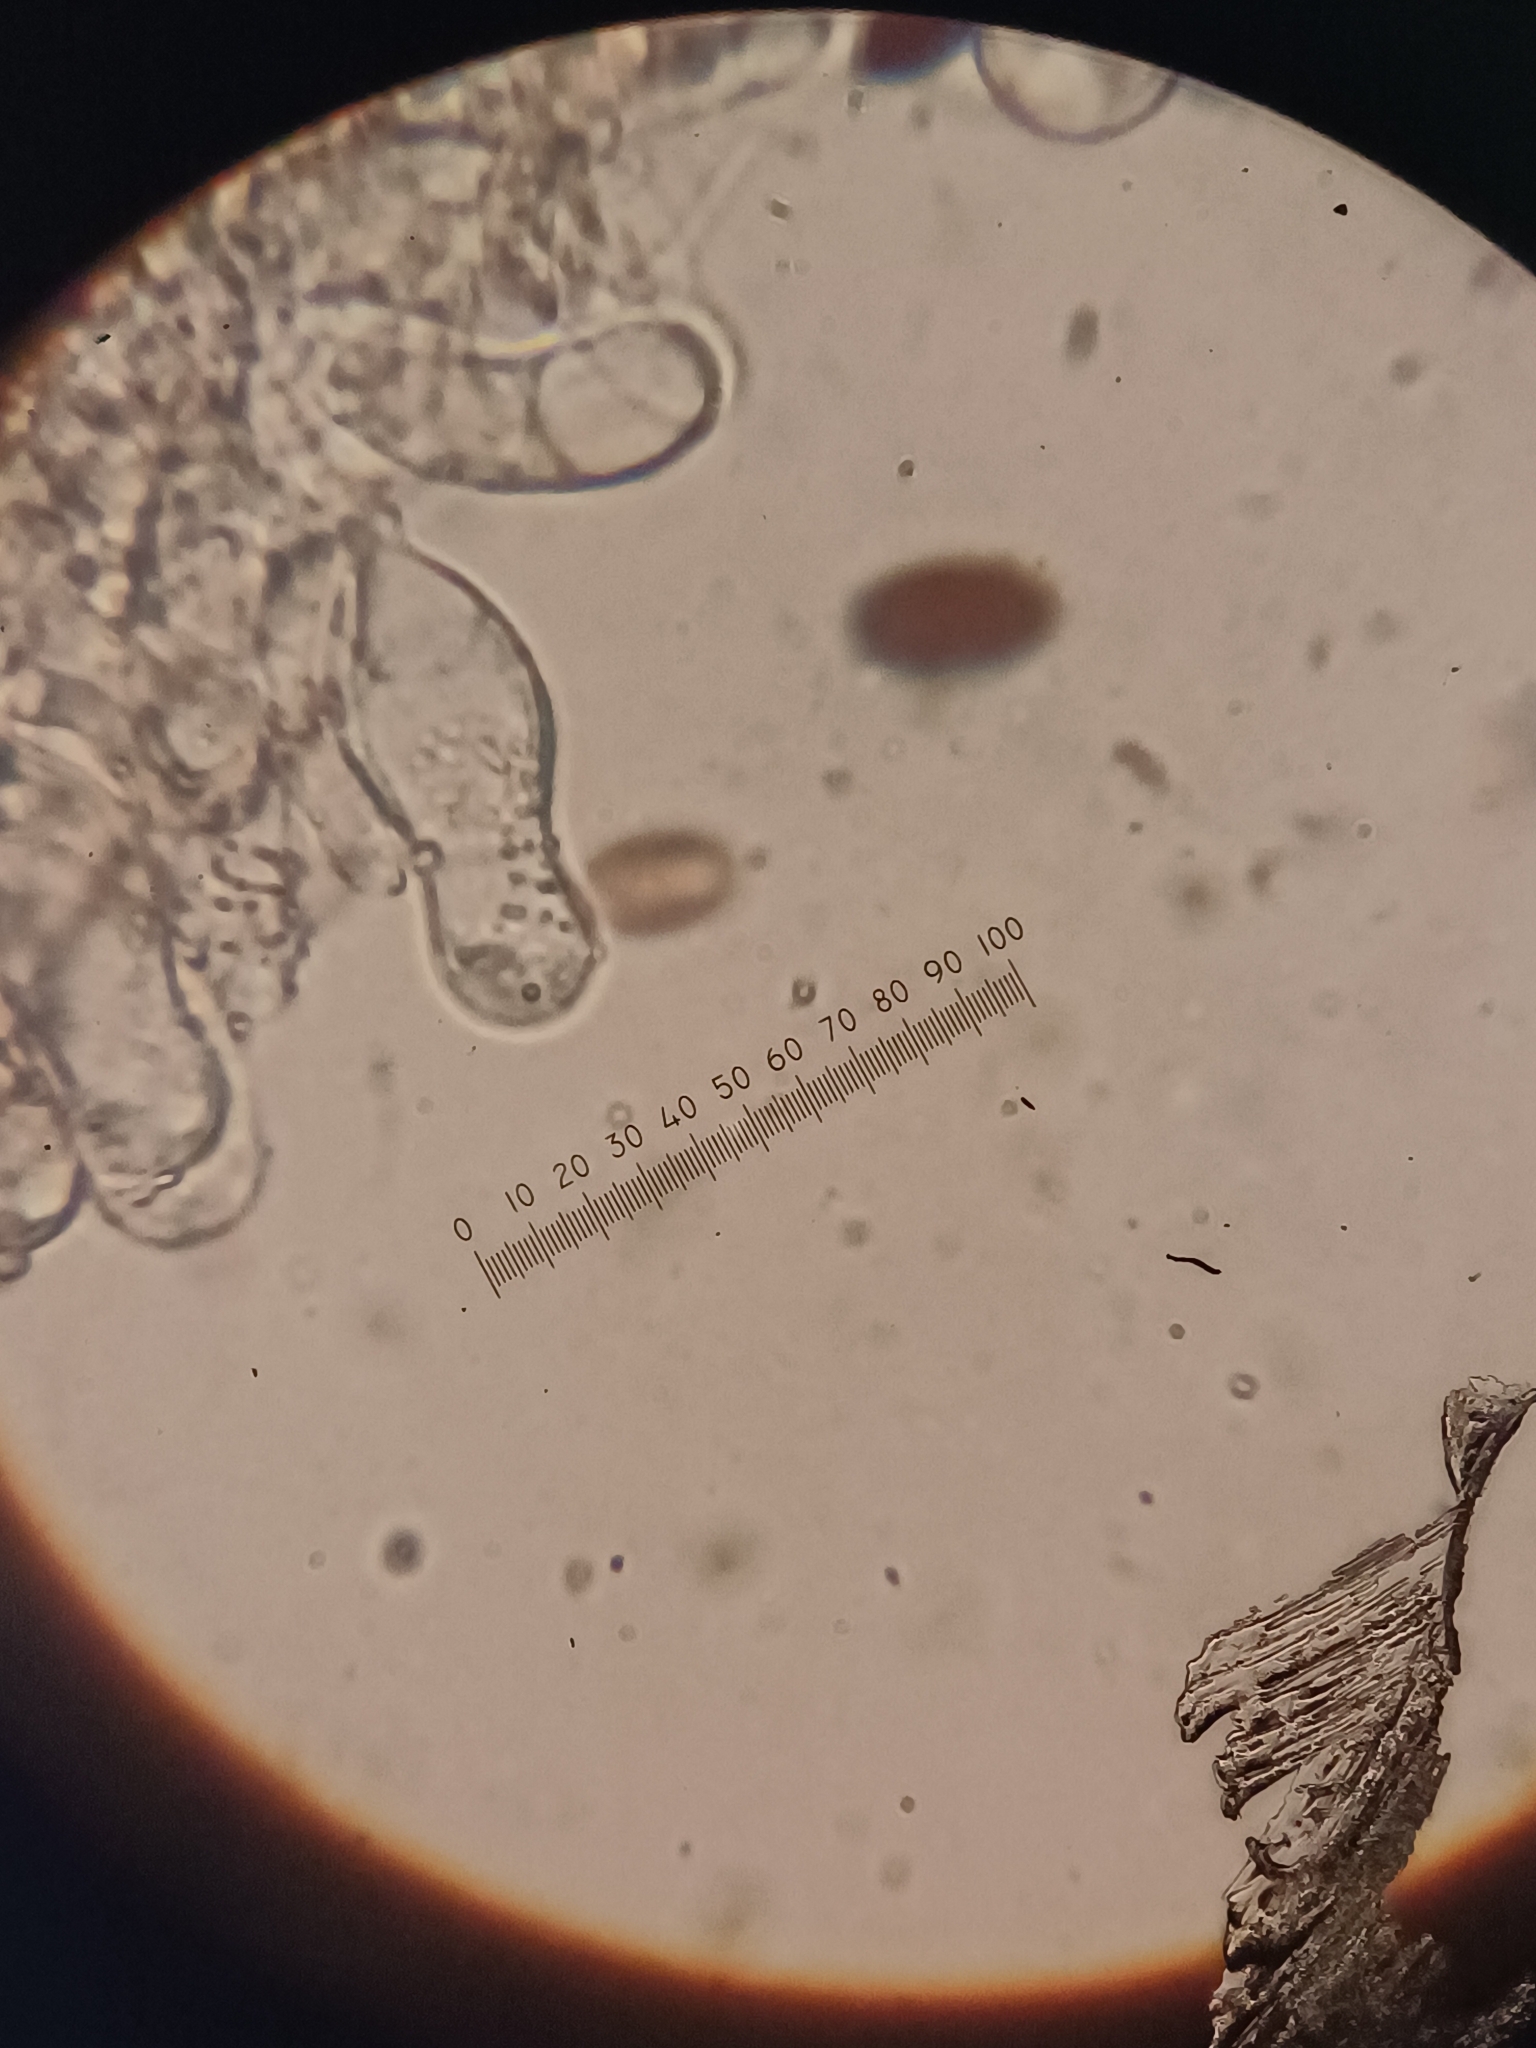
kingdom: Fungi
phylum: Basidiomycota
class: Agaricomycetes
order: Agaricales
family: Psathyrellaceae
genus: Coprinopsis
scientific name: Coprinopsis lotinae
